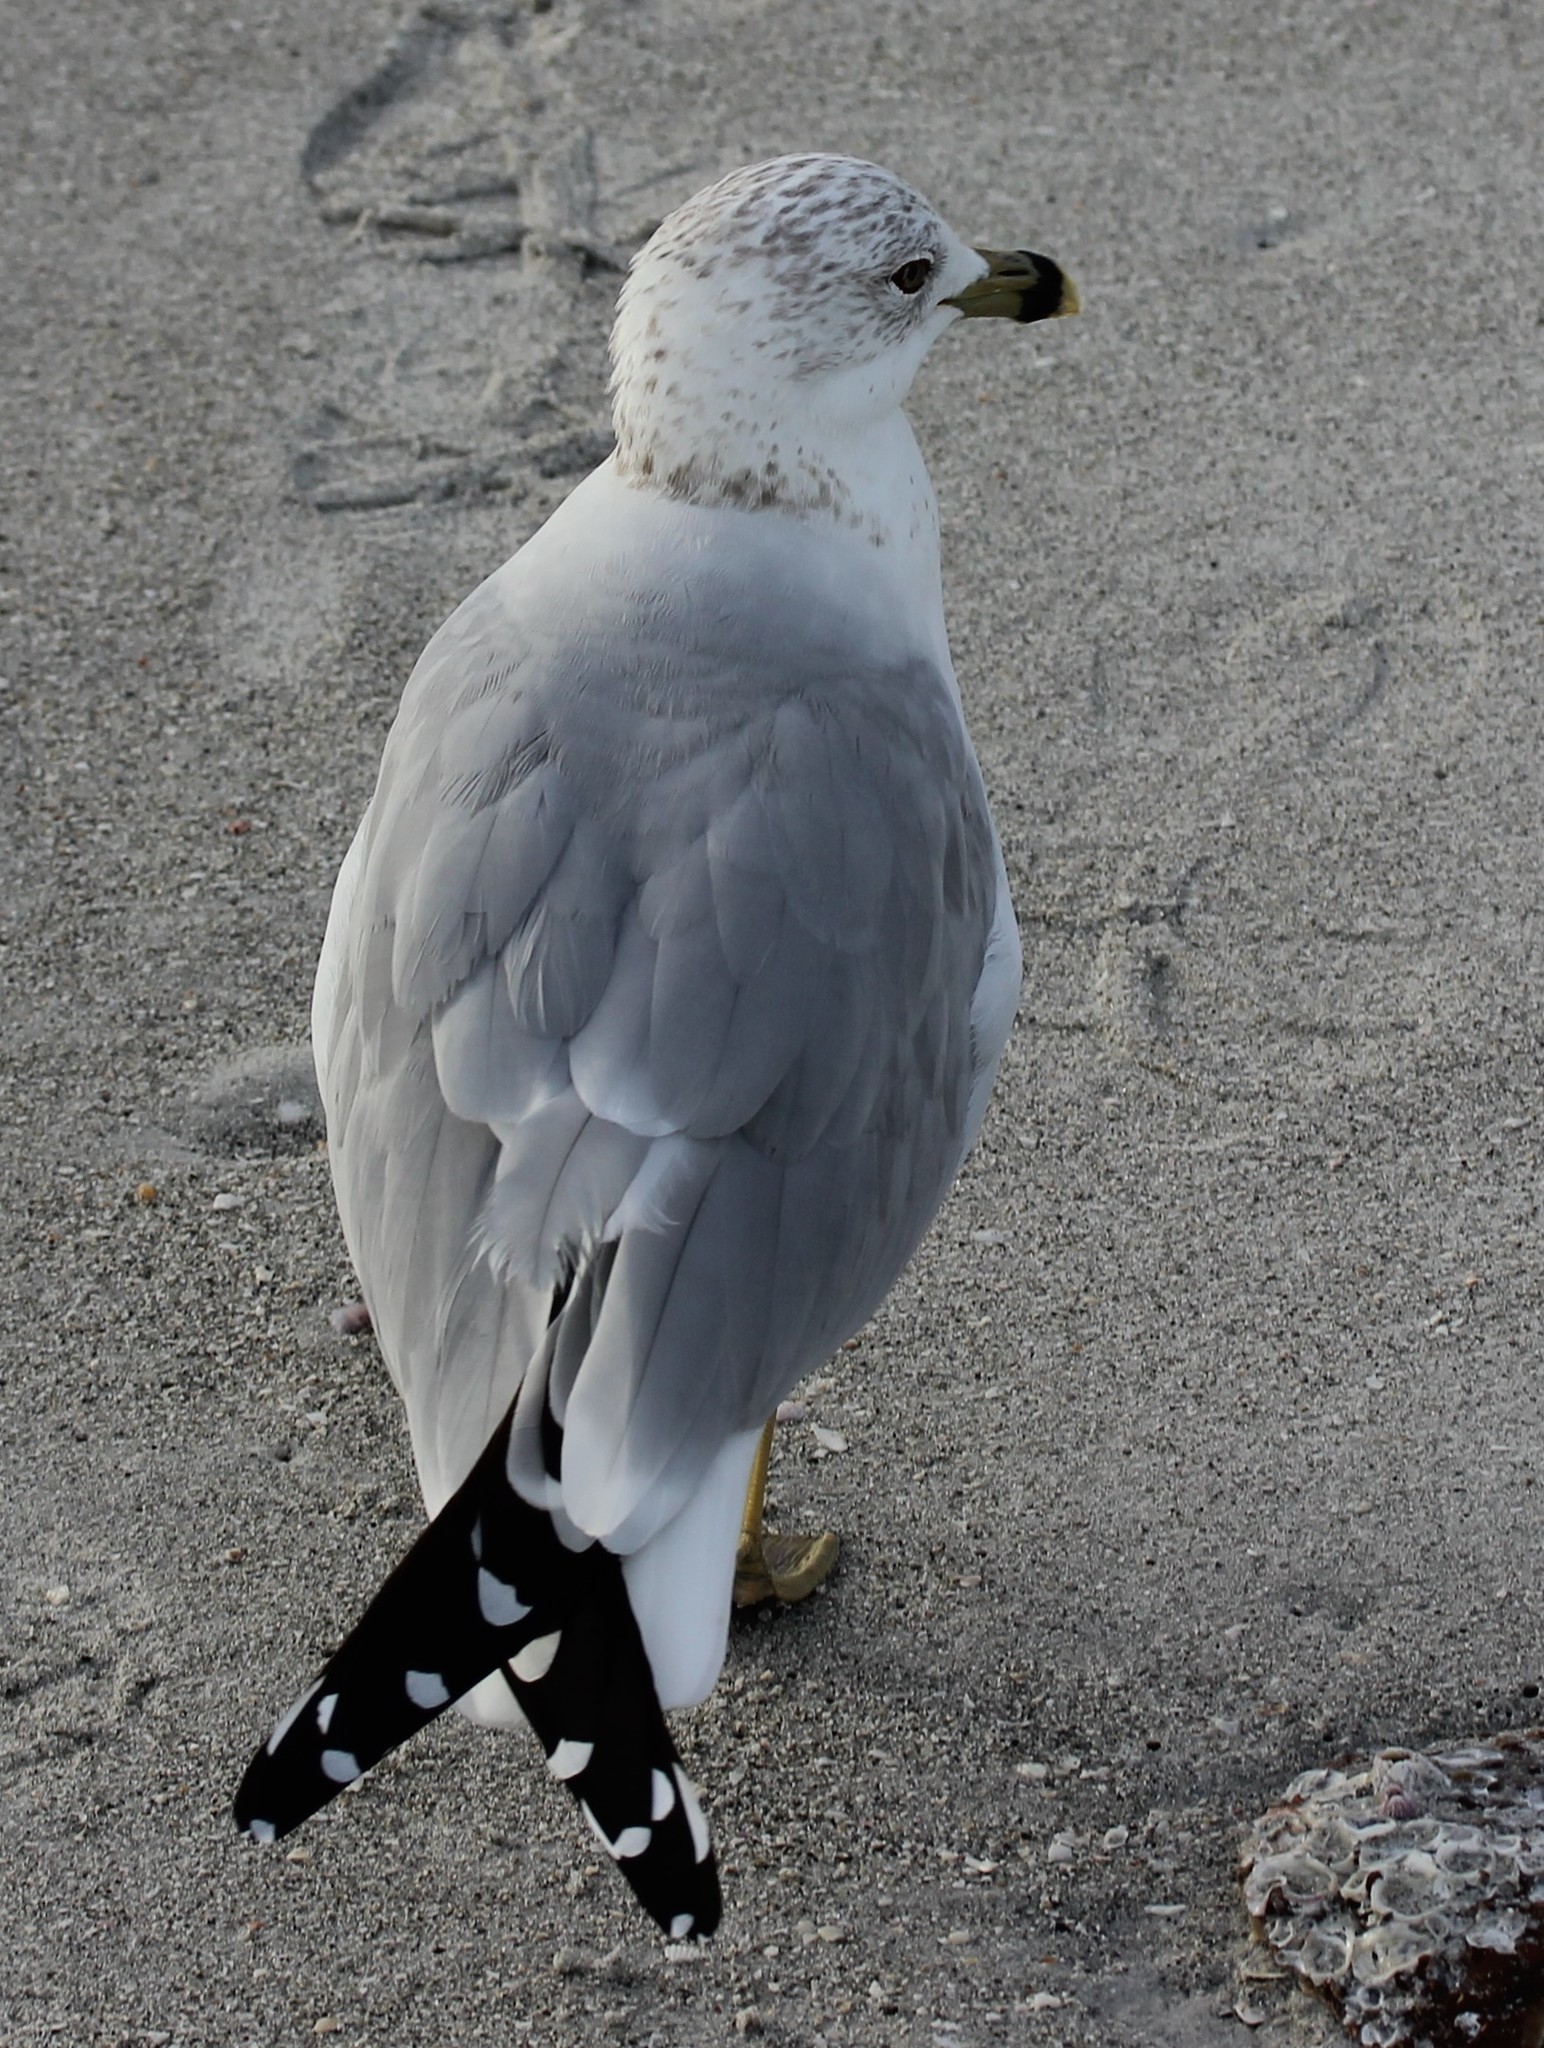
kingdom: Animalia
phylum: Chordata
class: Aves
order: Charadriiformes
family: Laridae
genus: Larus
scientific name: Larus delawarensis
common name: Ring-billed gull
